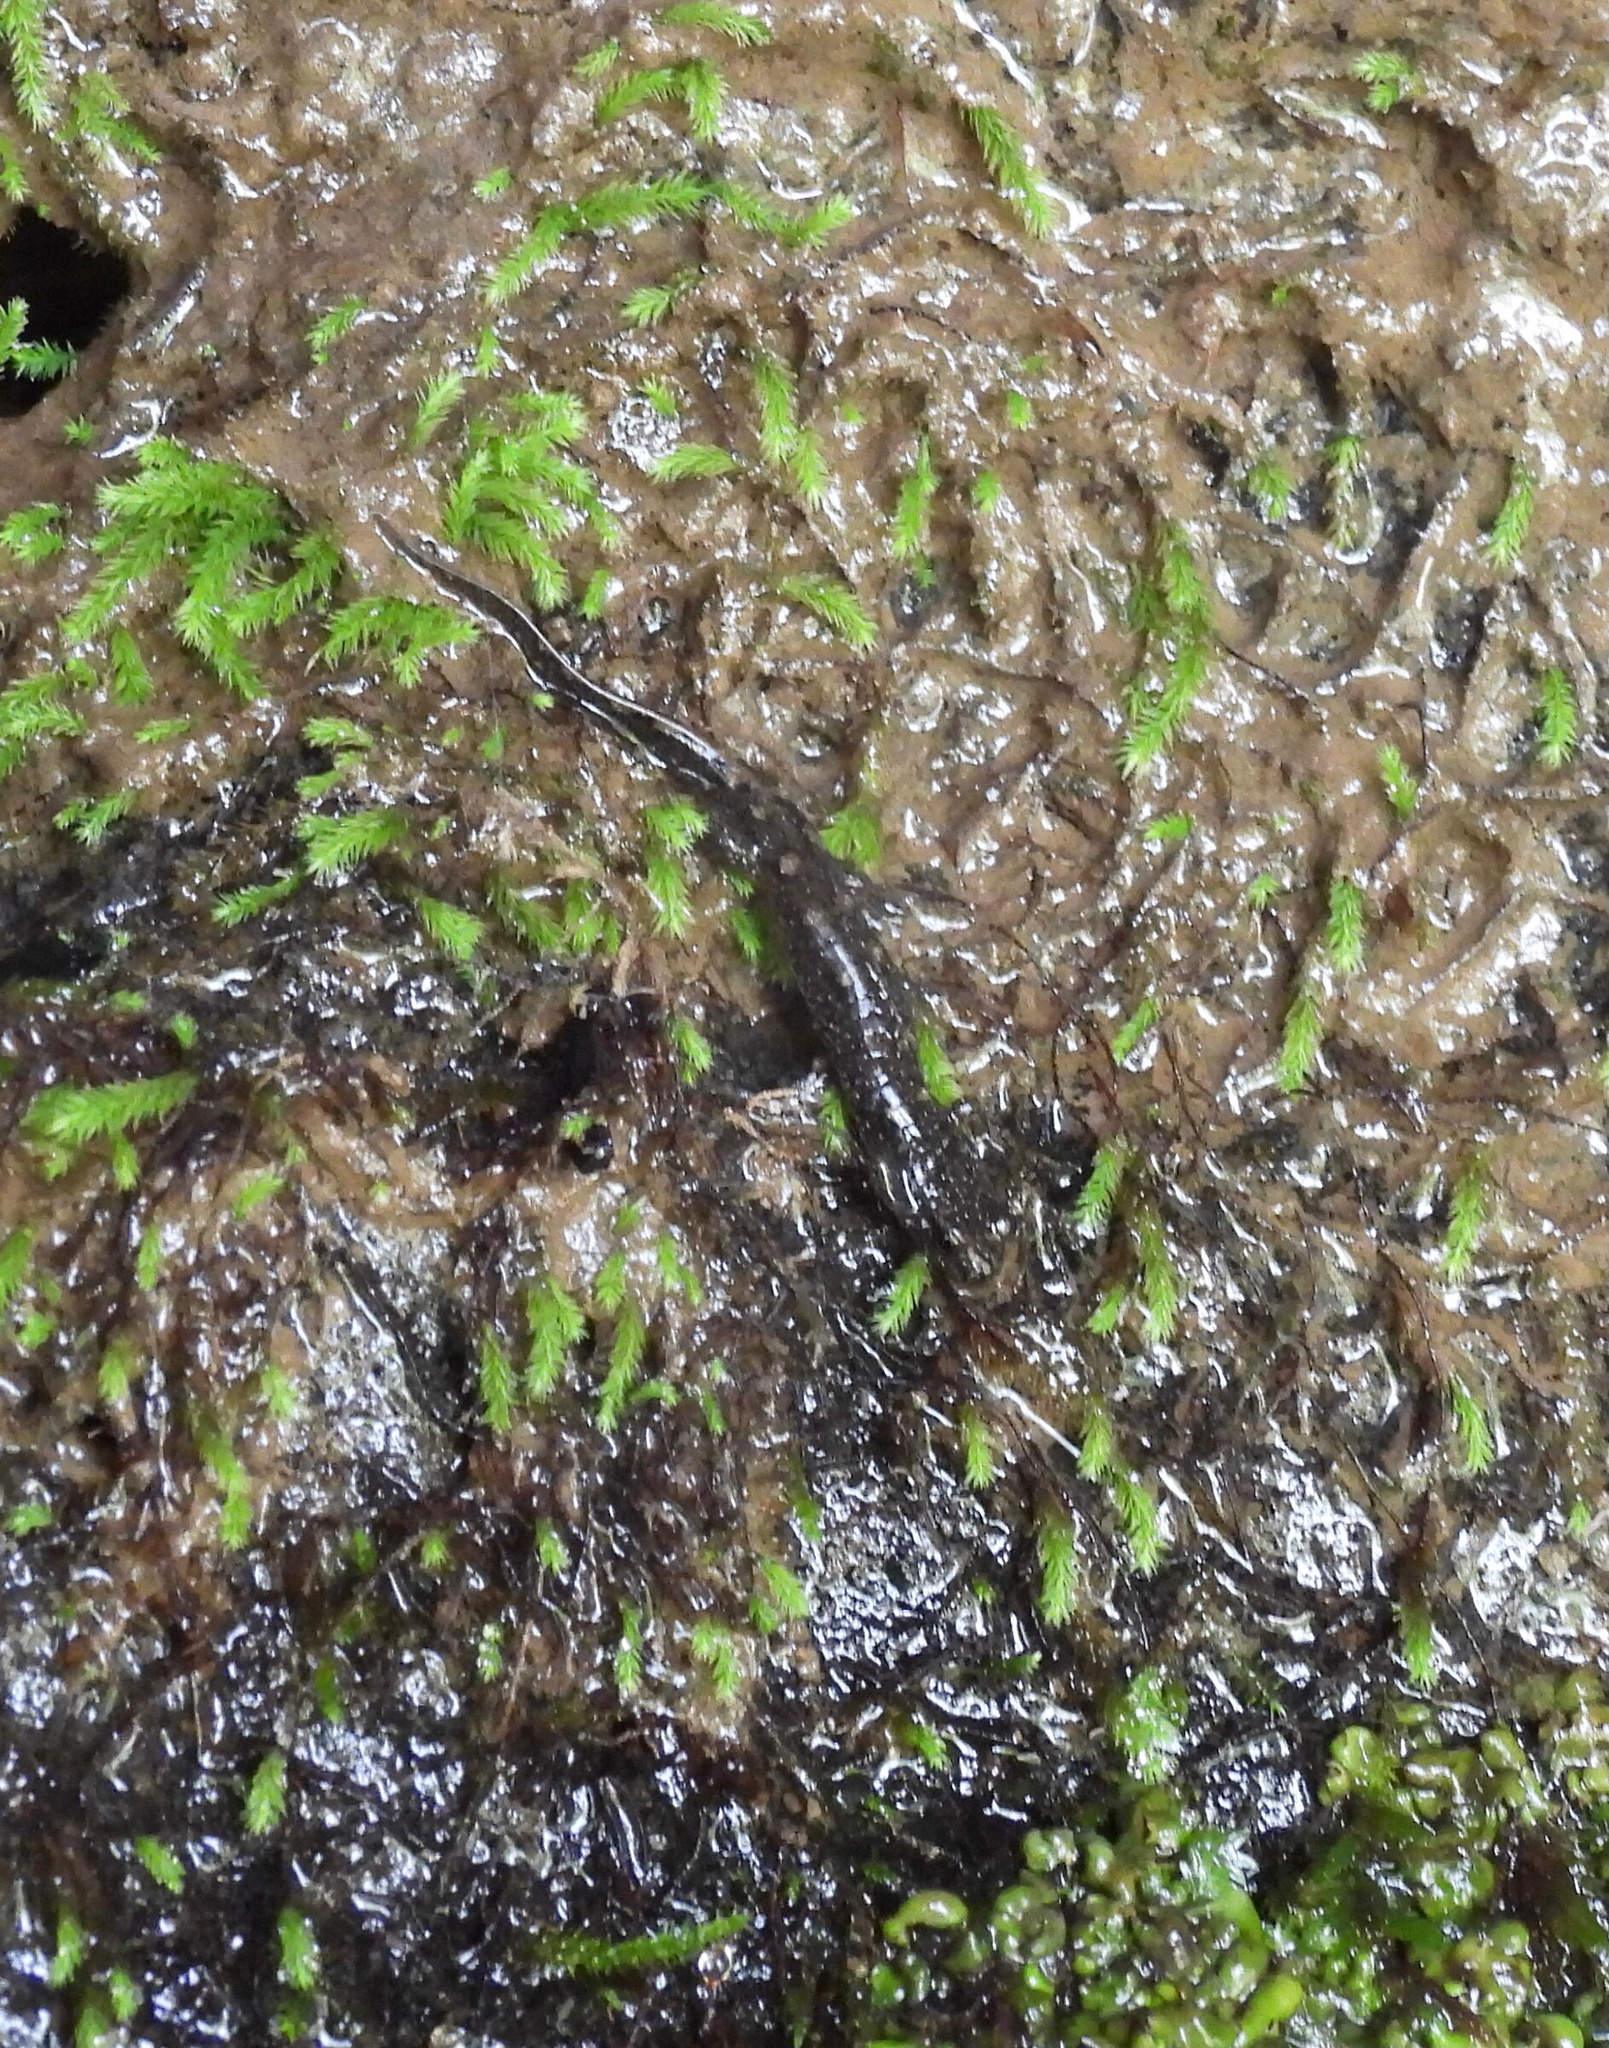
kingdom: Animalia
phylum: Chordata
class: Amphibia
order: Caudata
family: Plethodontidae
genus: Desmognathus
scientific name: Desmognathus conanti
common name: Spotted dusky salamander
